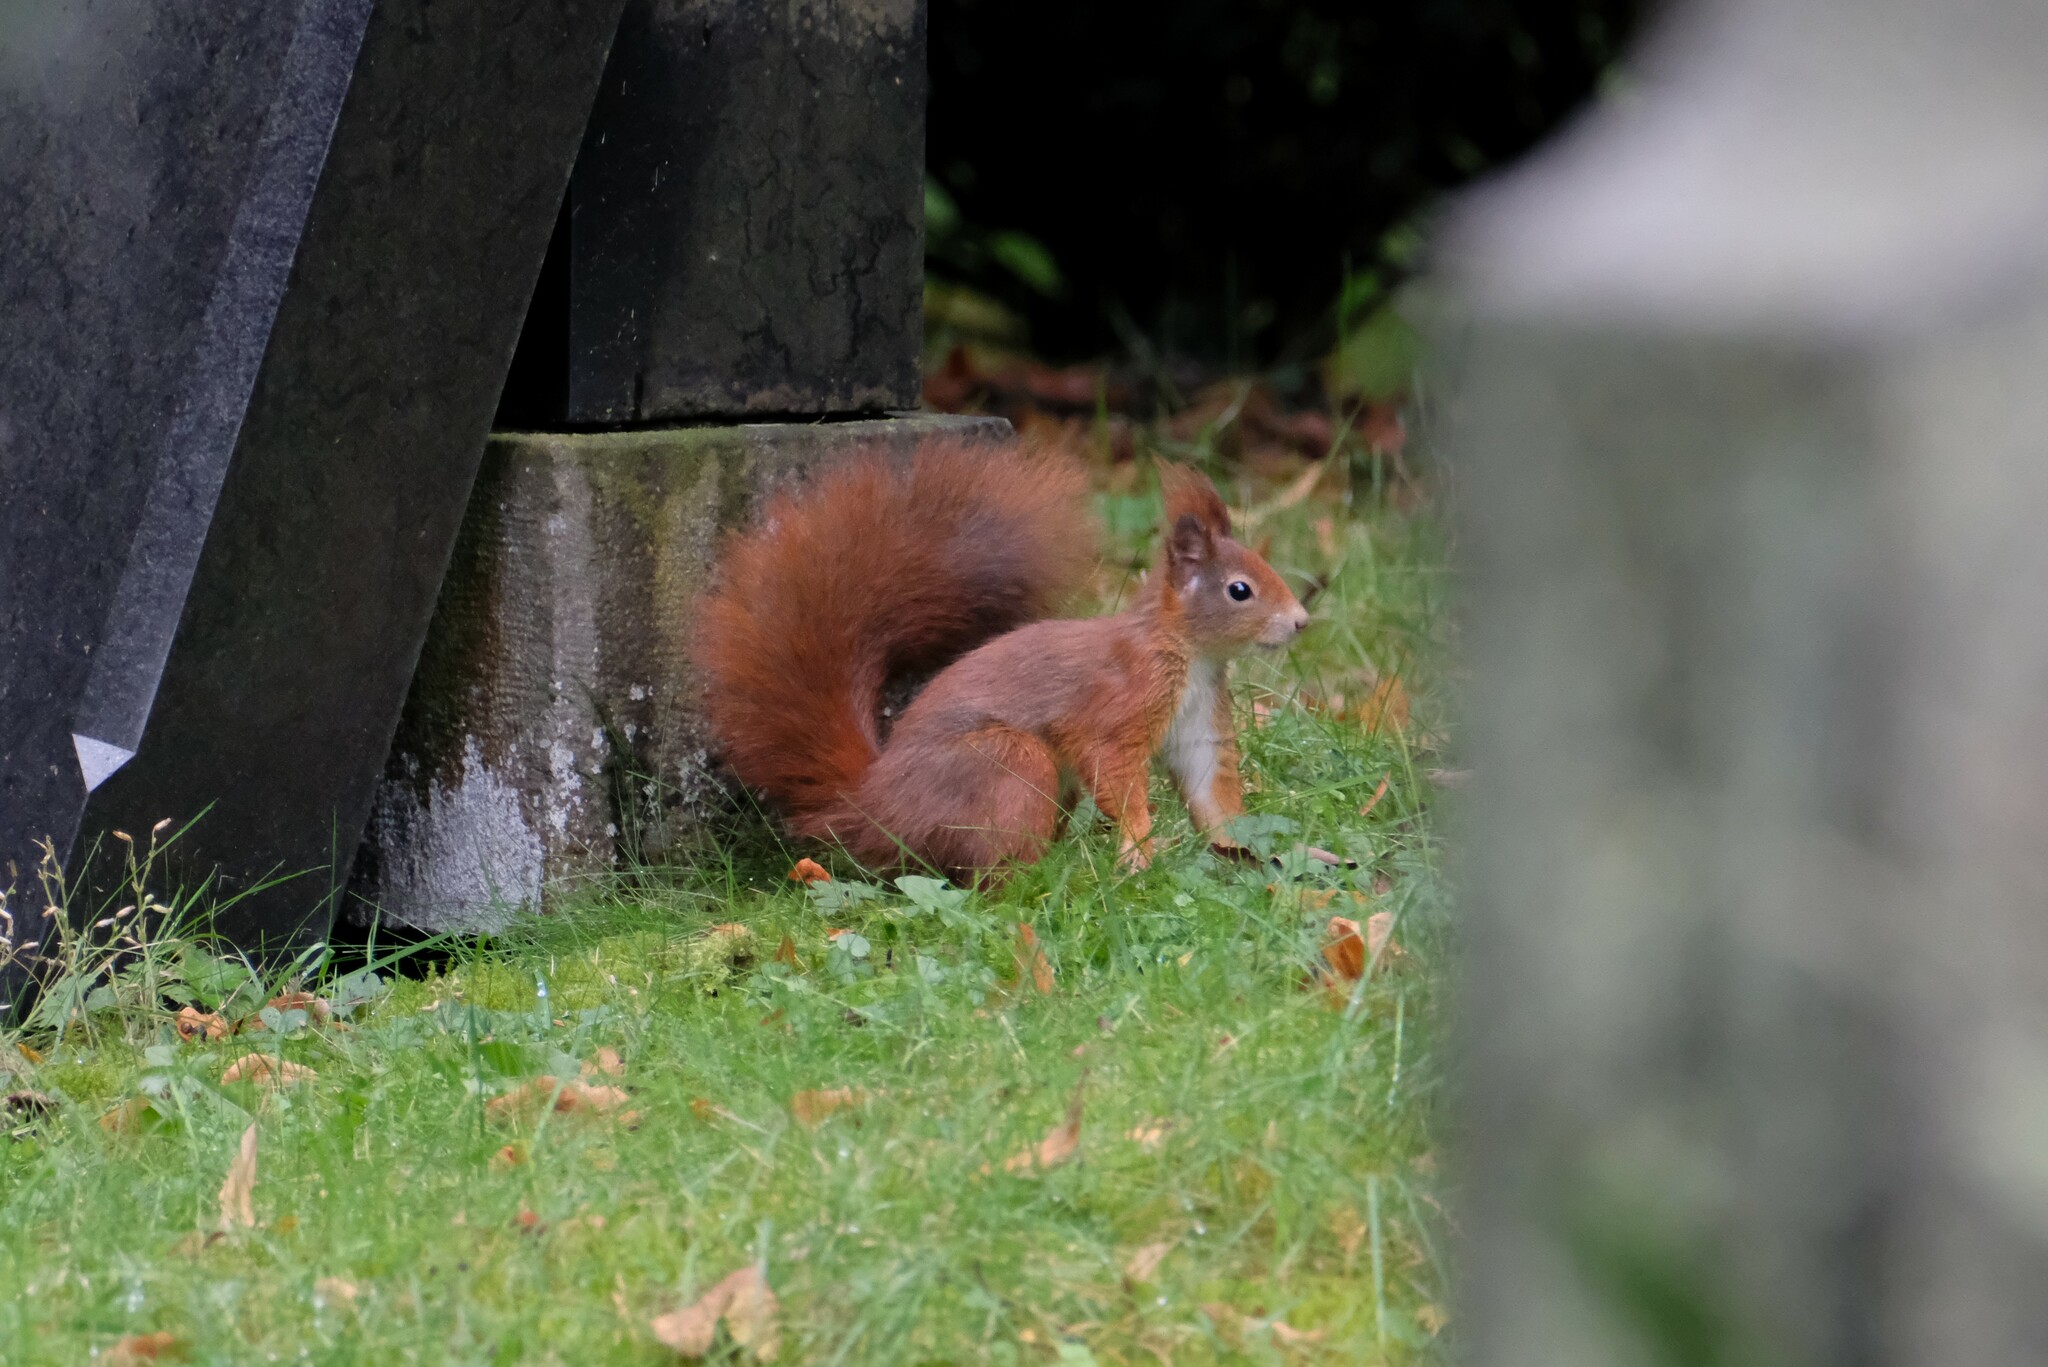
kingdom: Animalia
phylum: Chordata
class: Mammalia
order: Rodentia
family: Sciuridae
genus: Sciurus
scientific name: Sciurus vulgaris
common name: Eurasian red squirrel
